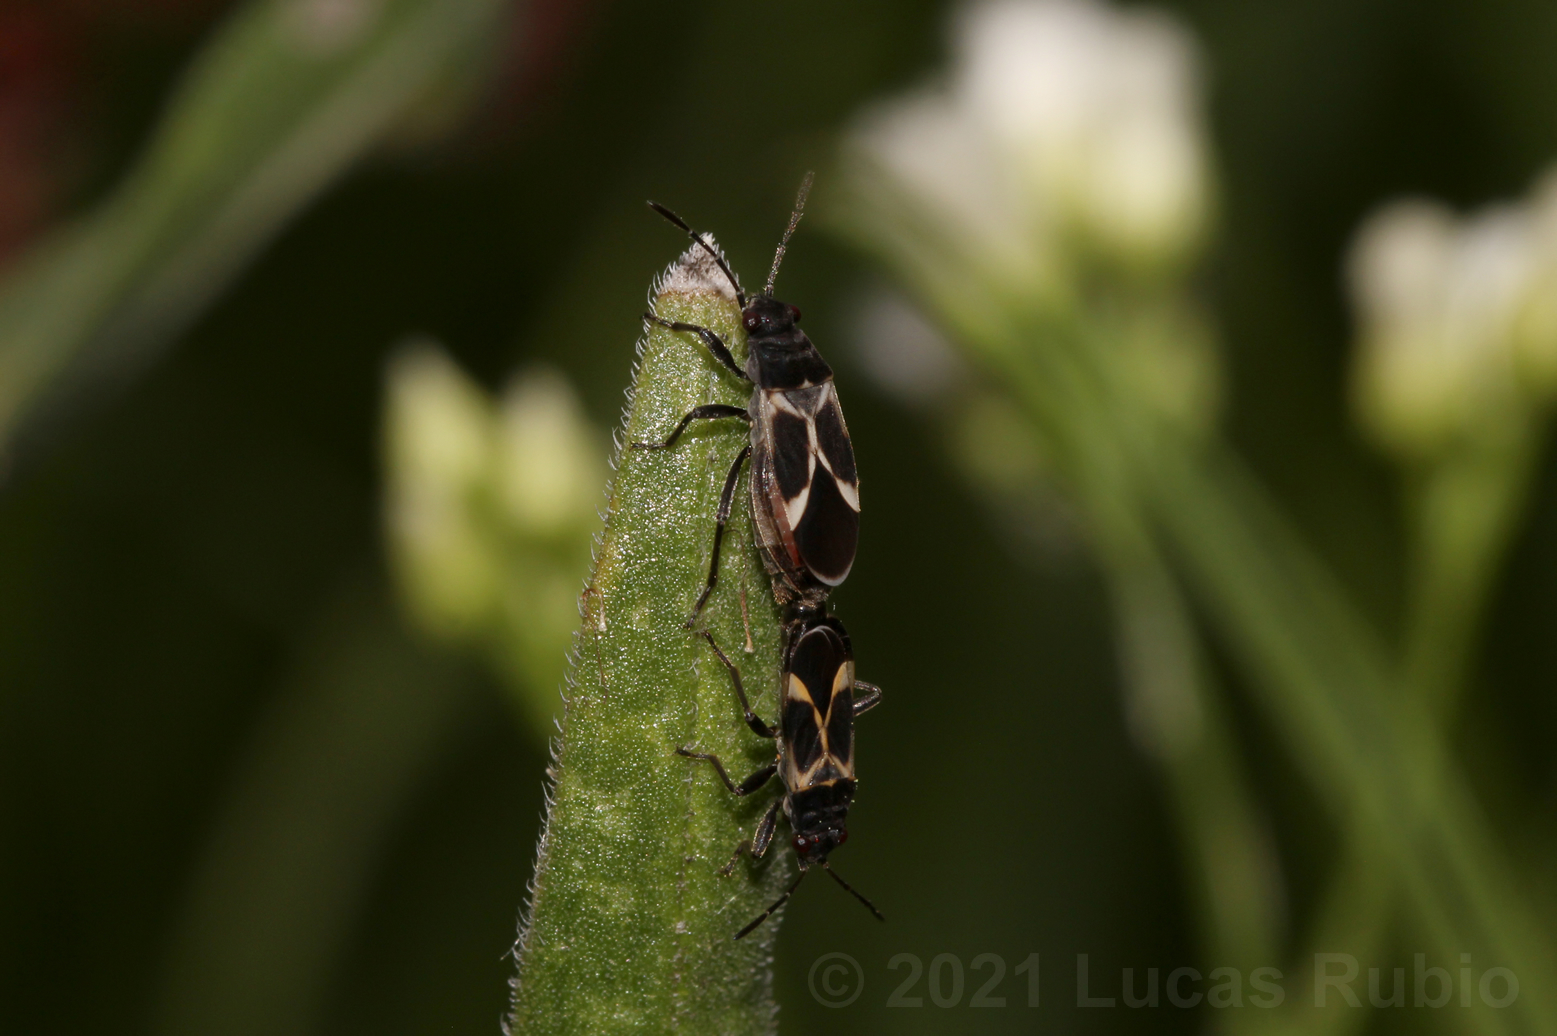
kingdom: Animalia
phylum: Arthropoda
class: Insecta
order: Hemiptera
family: Lygaeidae
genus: Ochrimnus
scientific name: Ochrimnus cinctipennis
